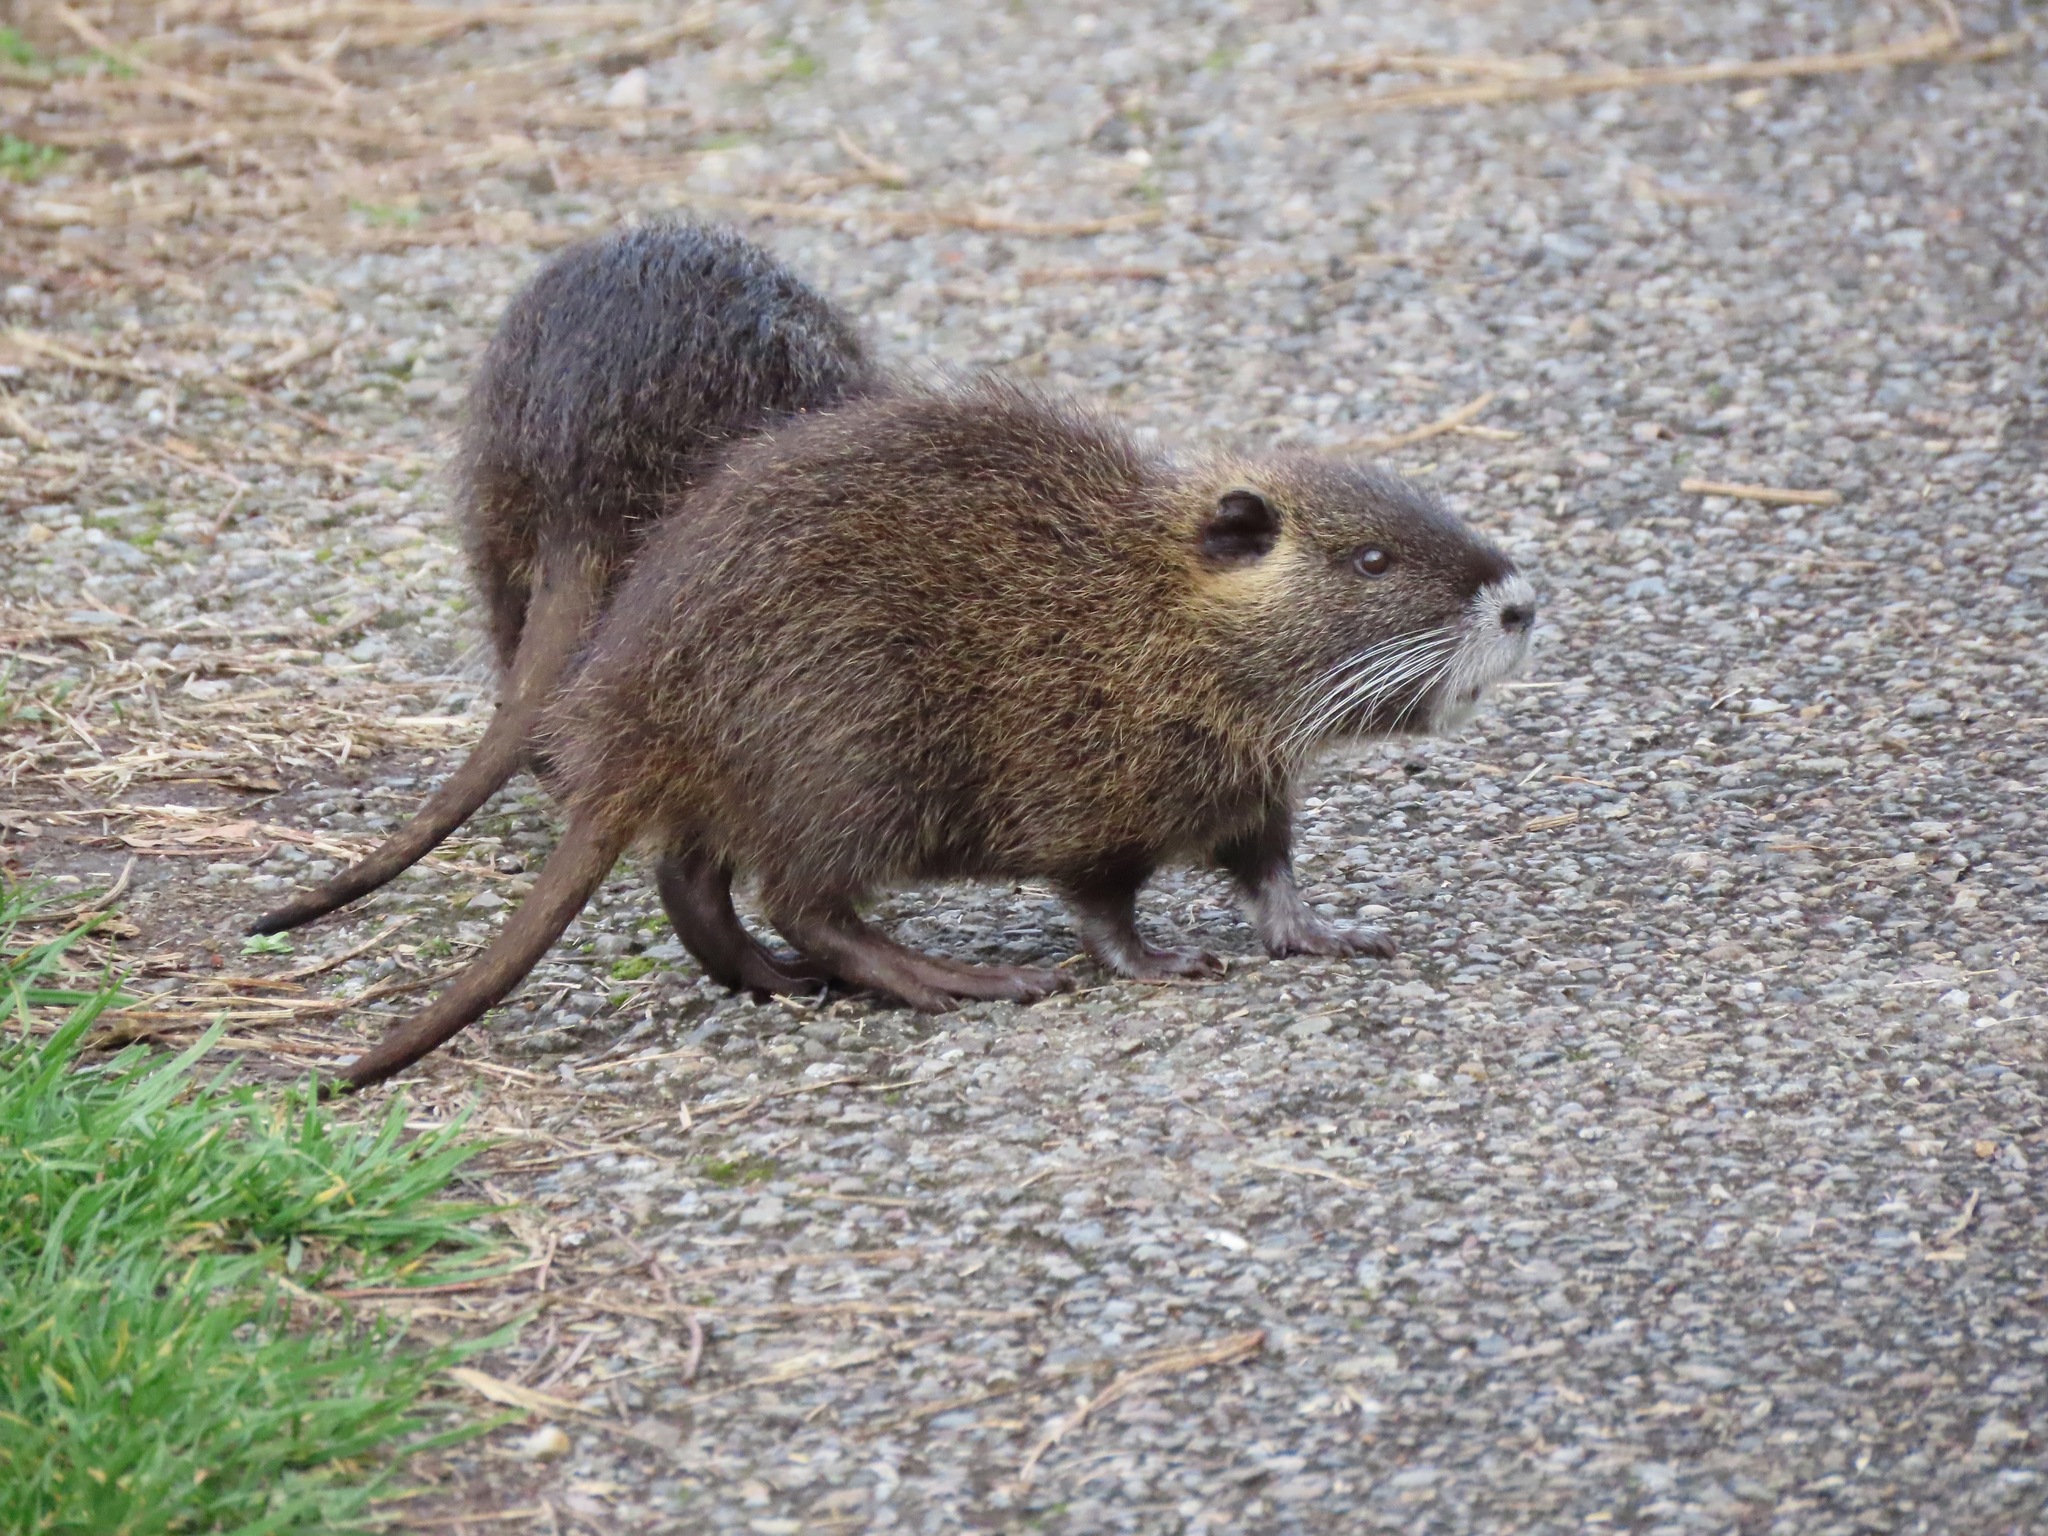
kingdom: Animalia
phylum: Chordata
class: Mammalia
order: Rodentia
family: Myocastoridae
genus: Myocastor
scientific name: Myocastor coypus
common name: Coypu
